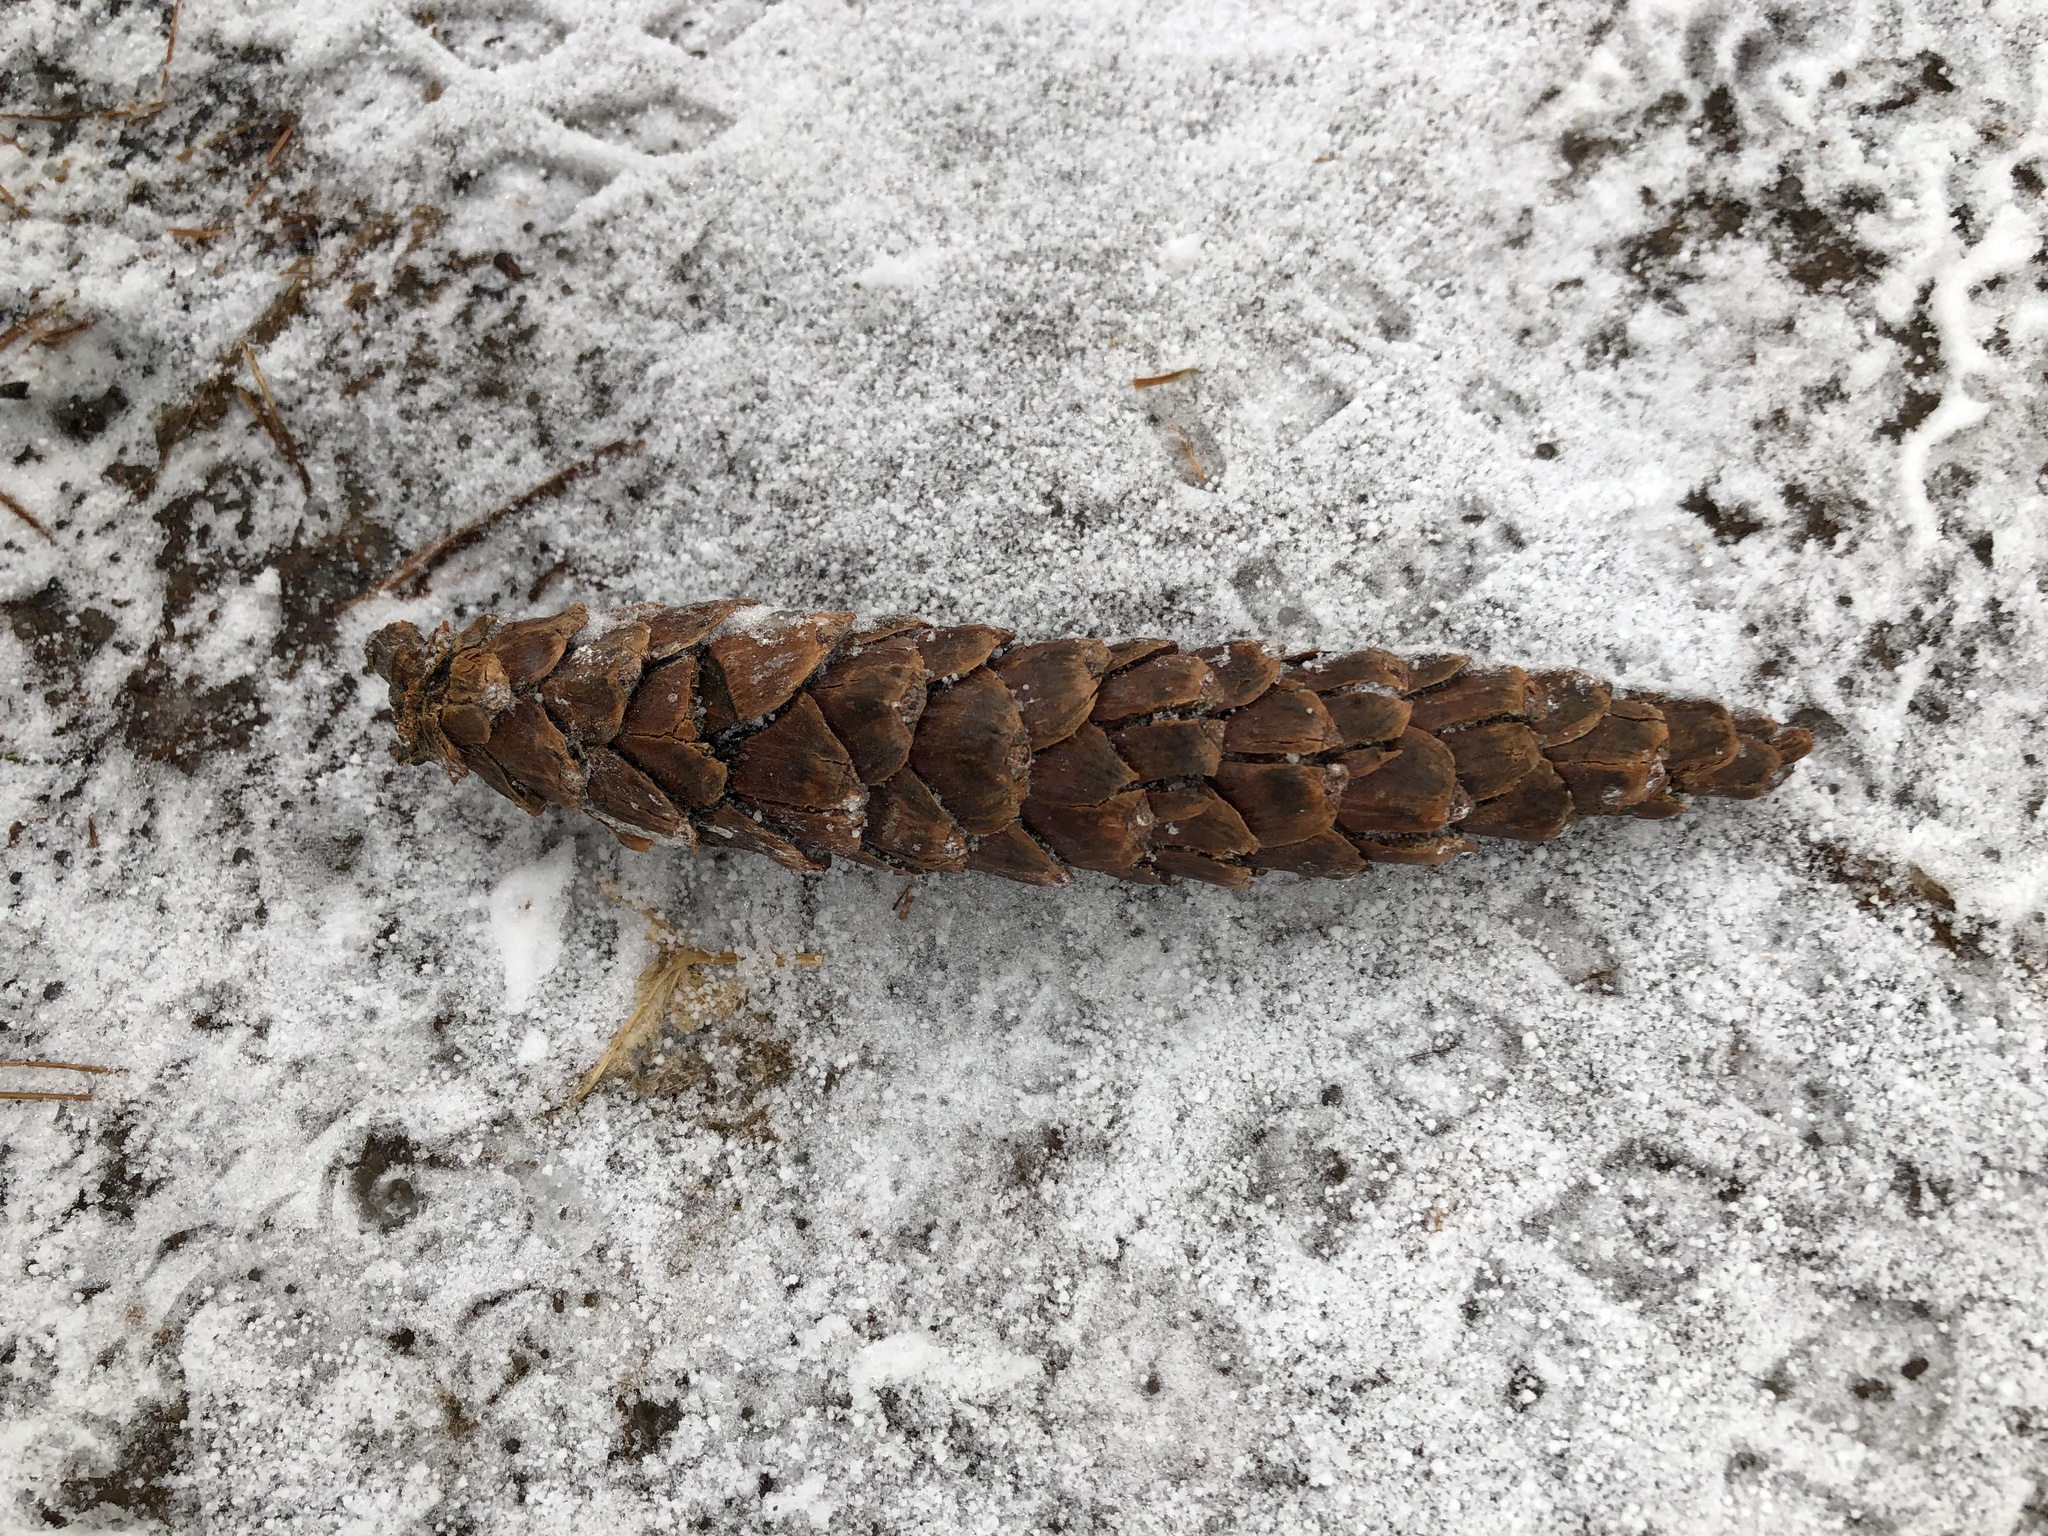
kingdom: Plantae
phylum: Tracheophyta
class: Pinopsida
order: Pinales
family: Pinaceae
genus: Pinus
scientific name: Pinus strobus
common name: Weymouth pine
